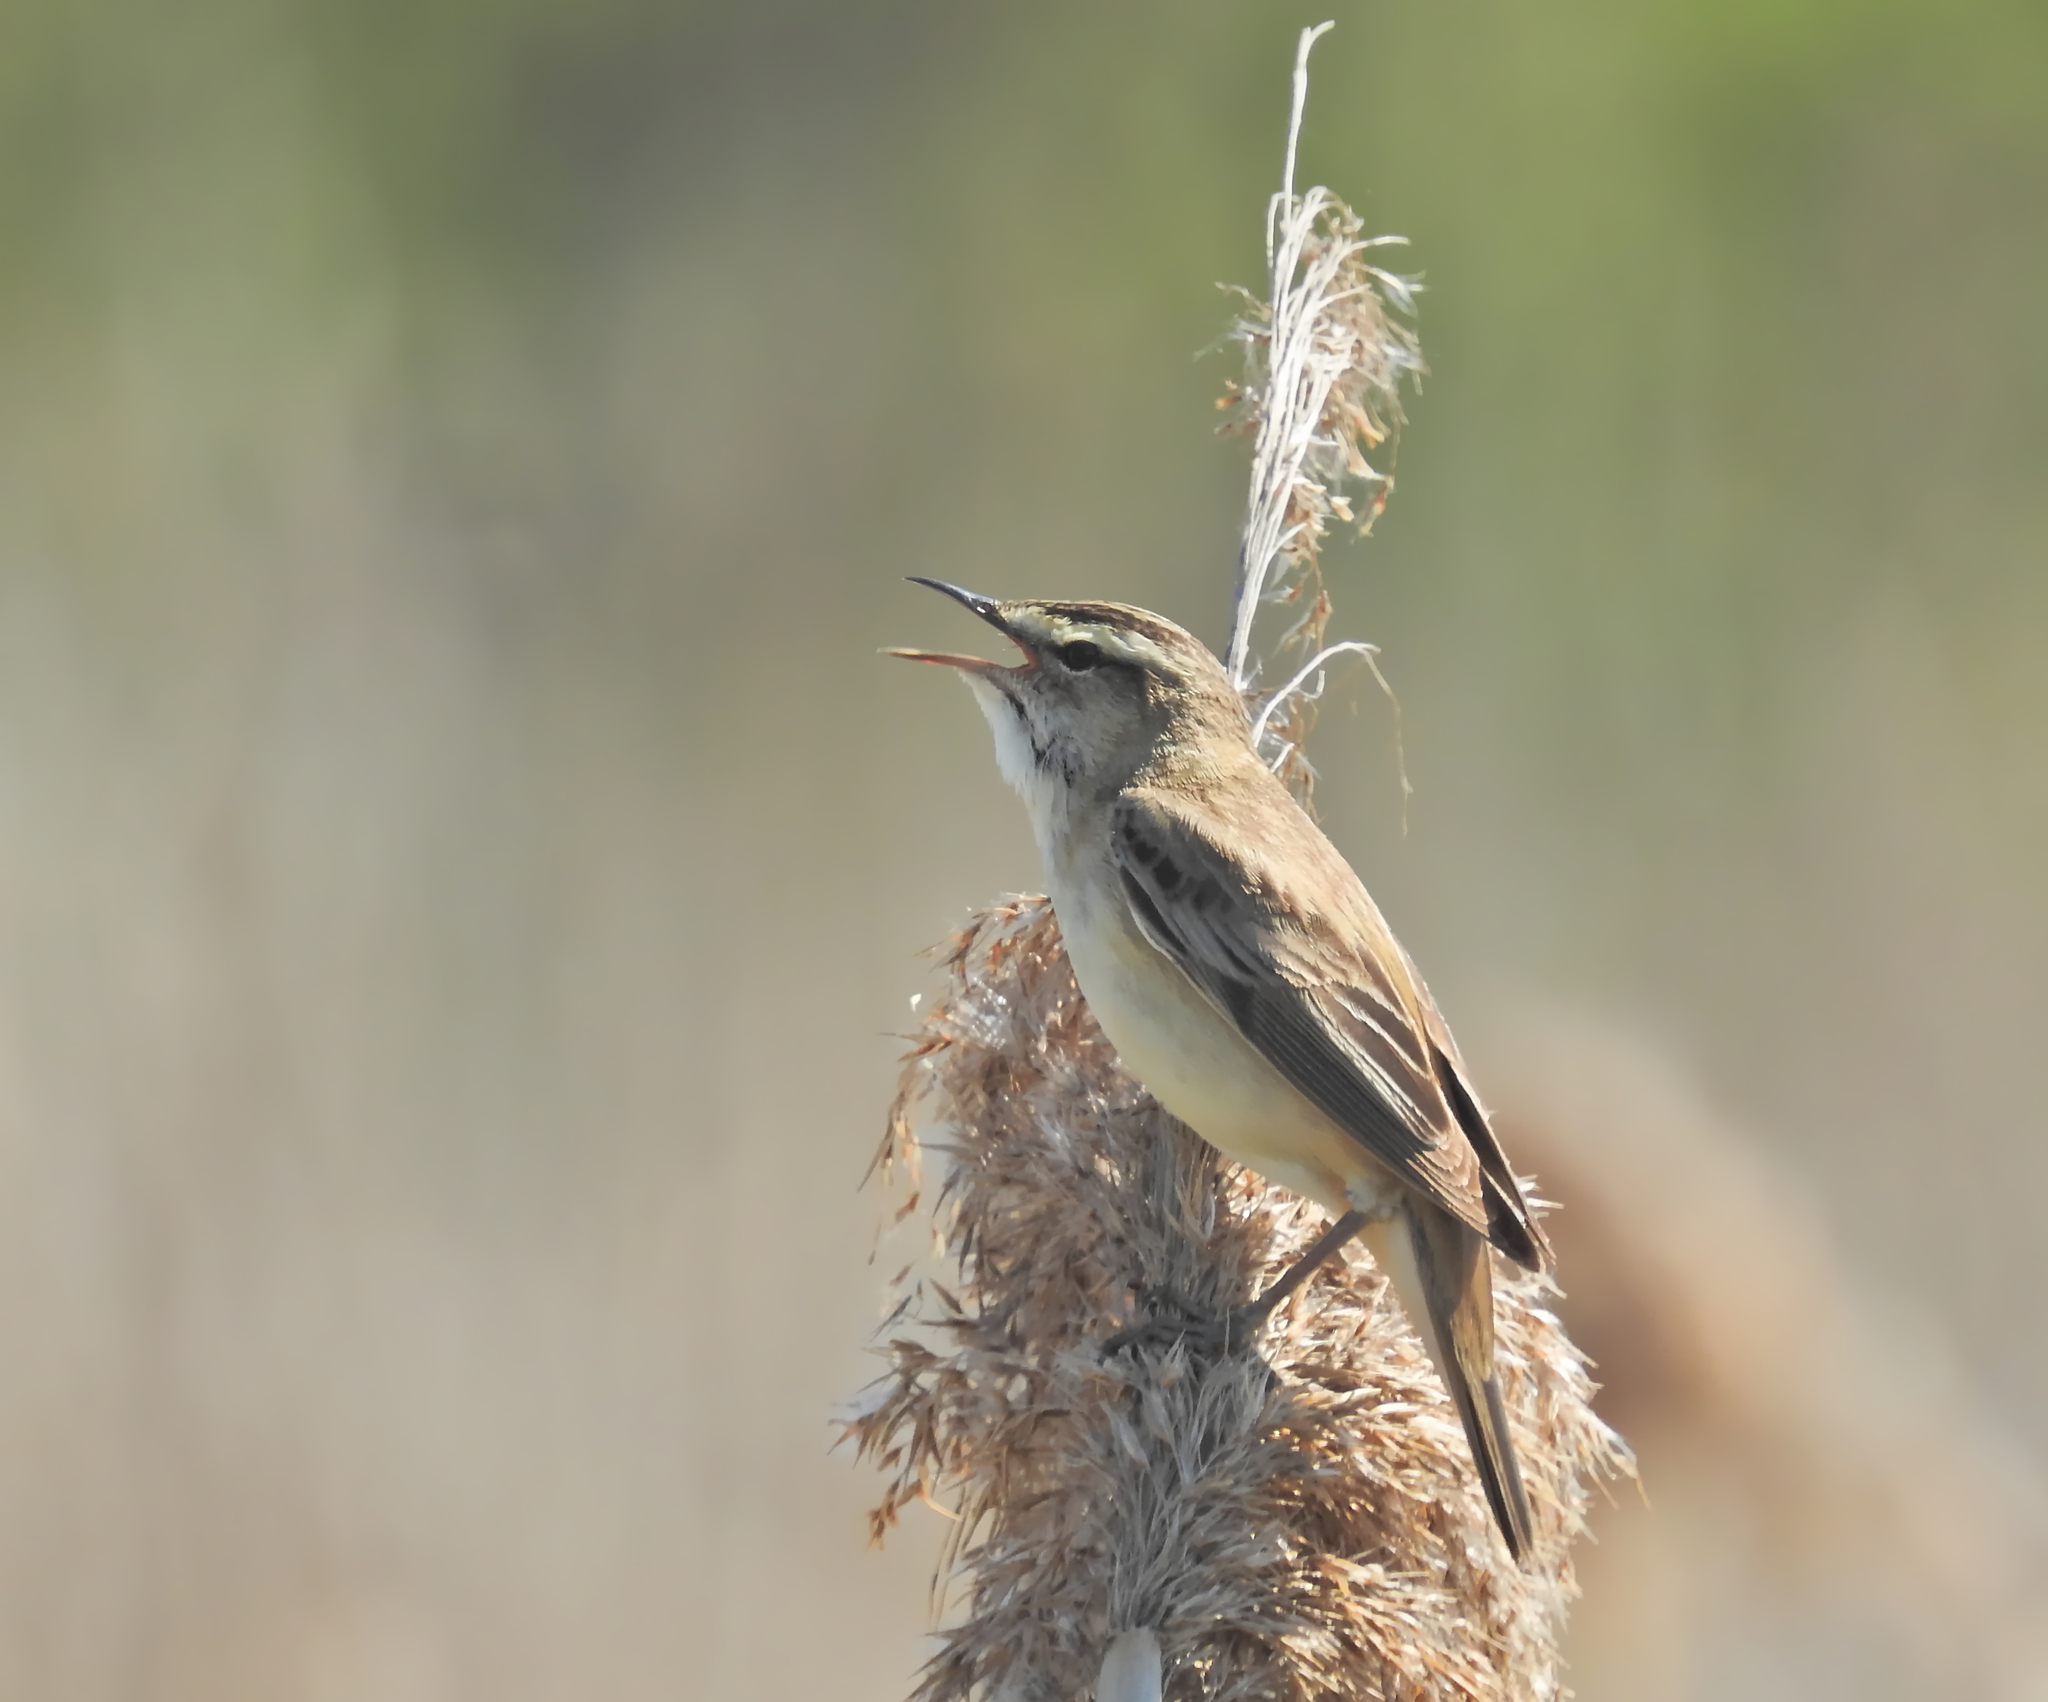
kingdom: Animalia
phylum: Chordata
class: Aves
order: Passeriformes
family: Acrocephalidae
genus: Acrocephalus
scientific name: Acrocephalus schoenobaenus
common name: Sedge warbler
